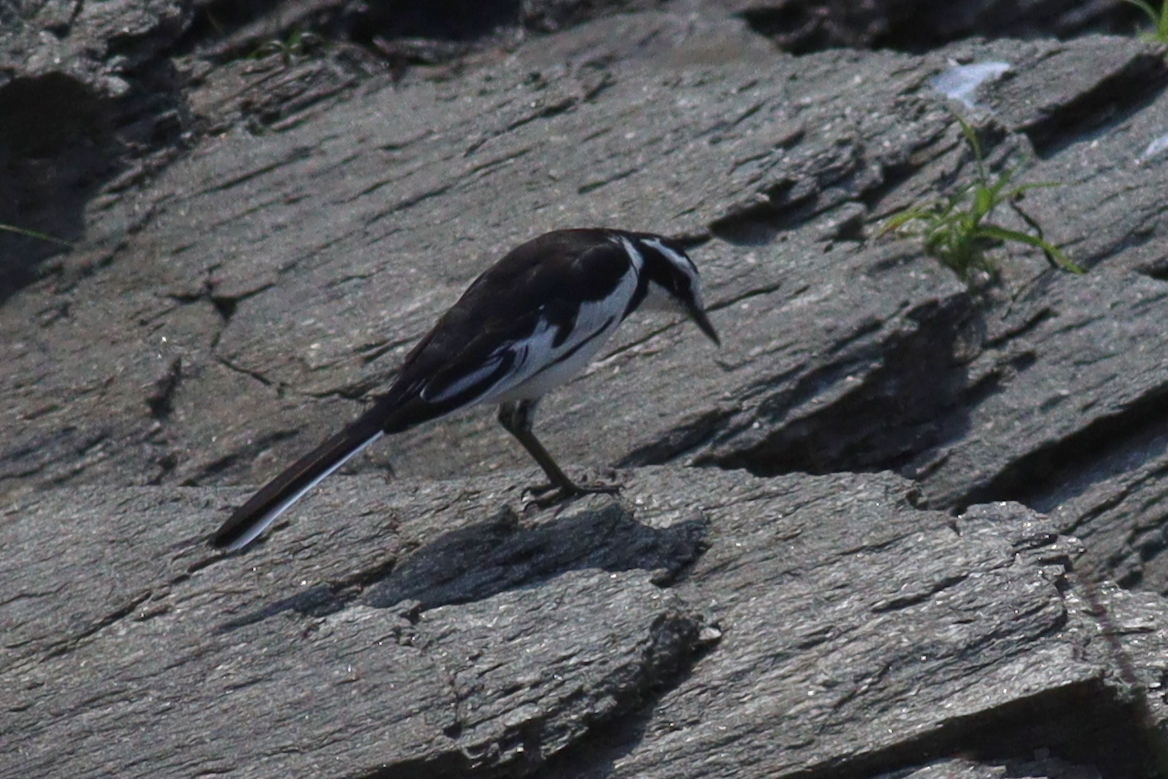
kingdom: Animalia
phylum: Chordata
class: Aves
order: Passeriformes
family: Motacillidae
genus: Motacilla
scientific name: Motacilla aguimp
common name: African pied wagtail
